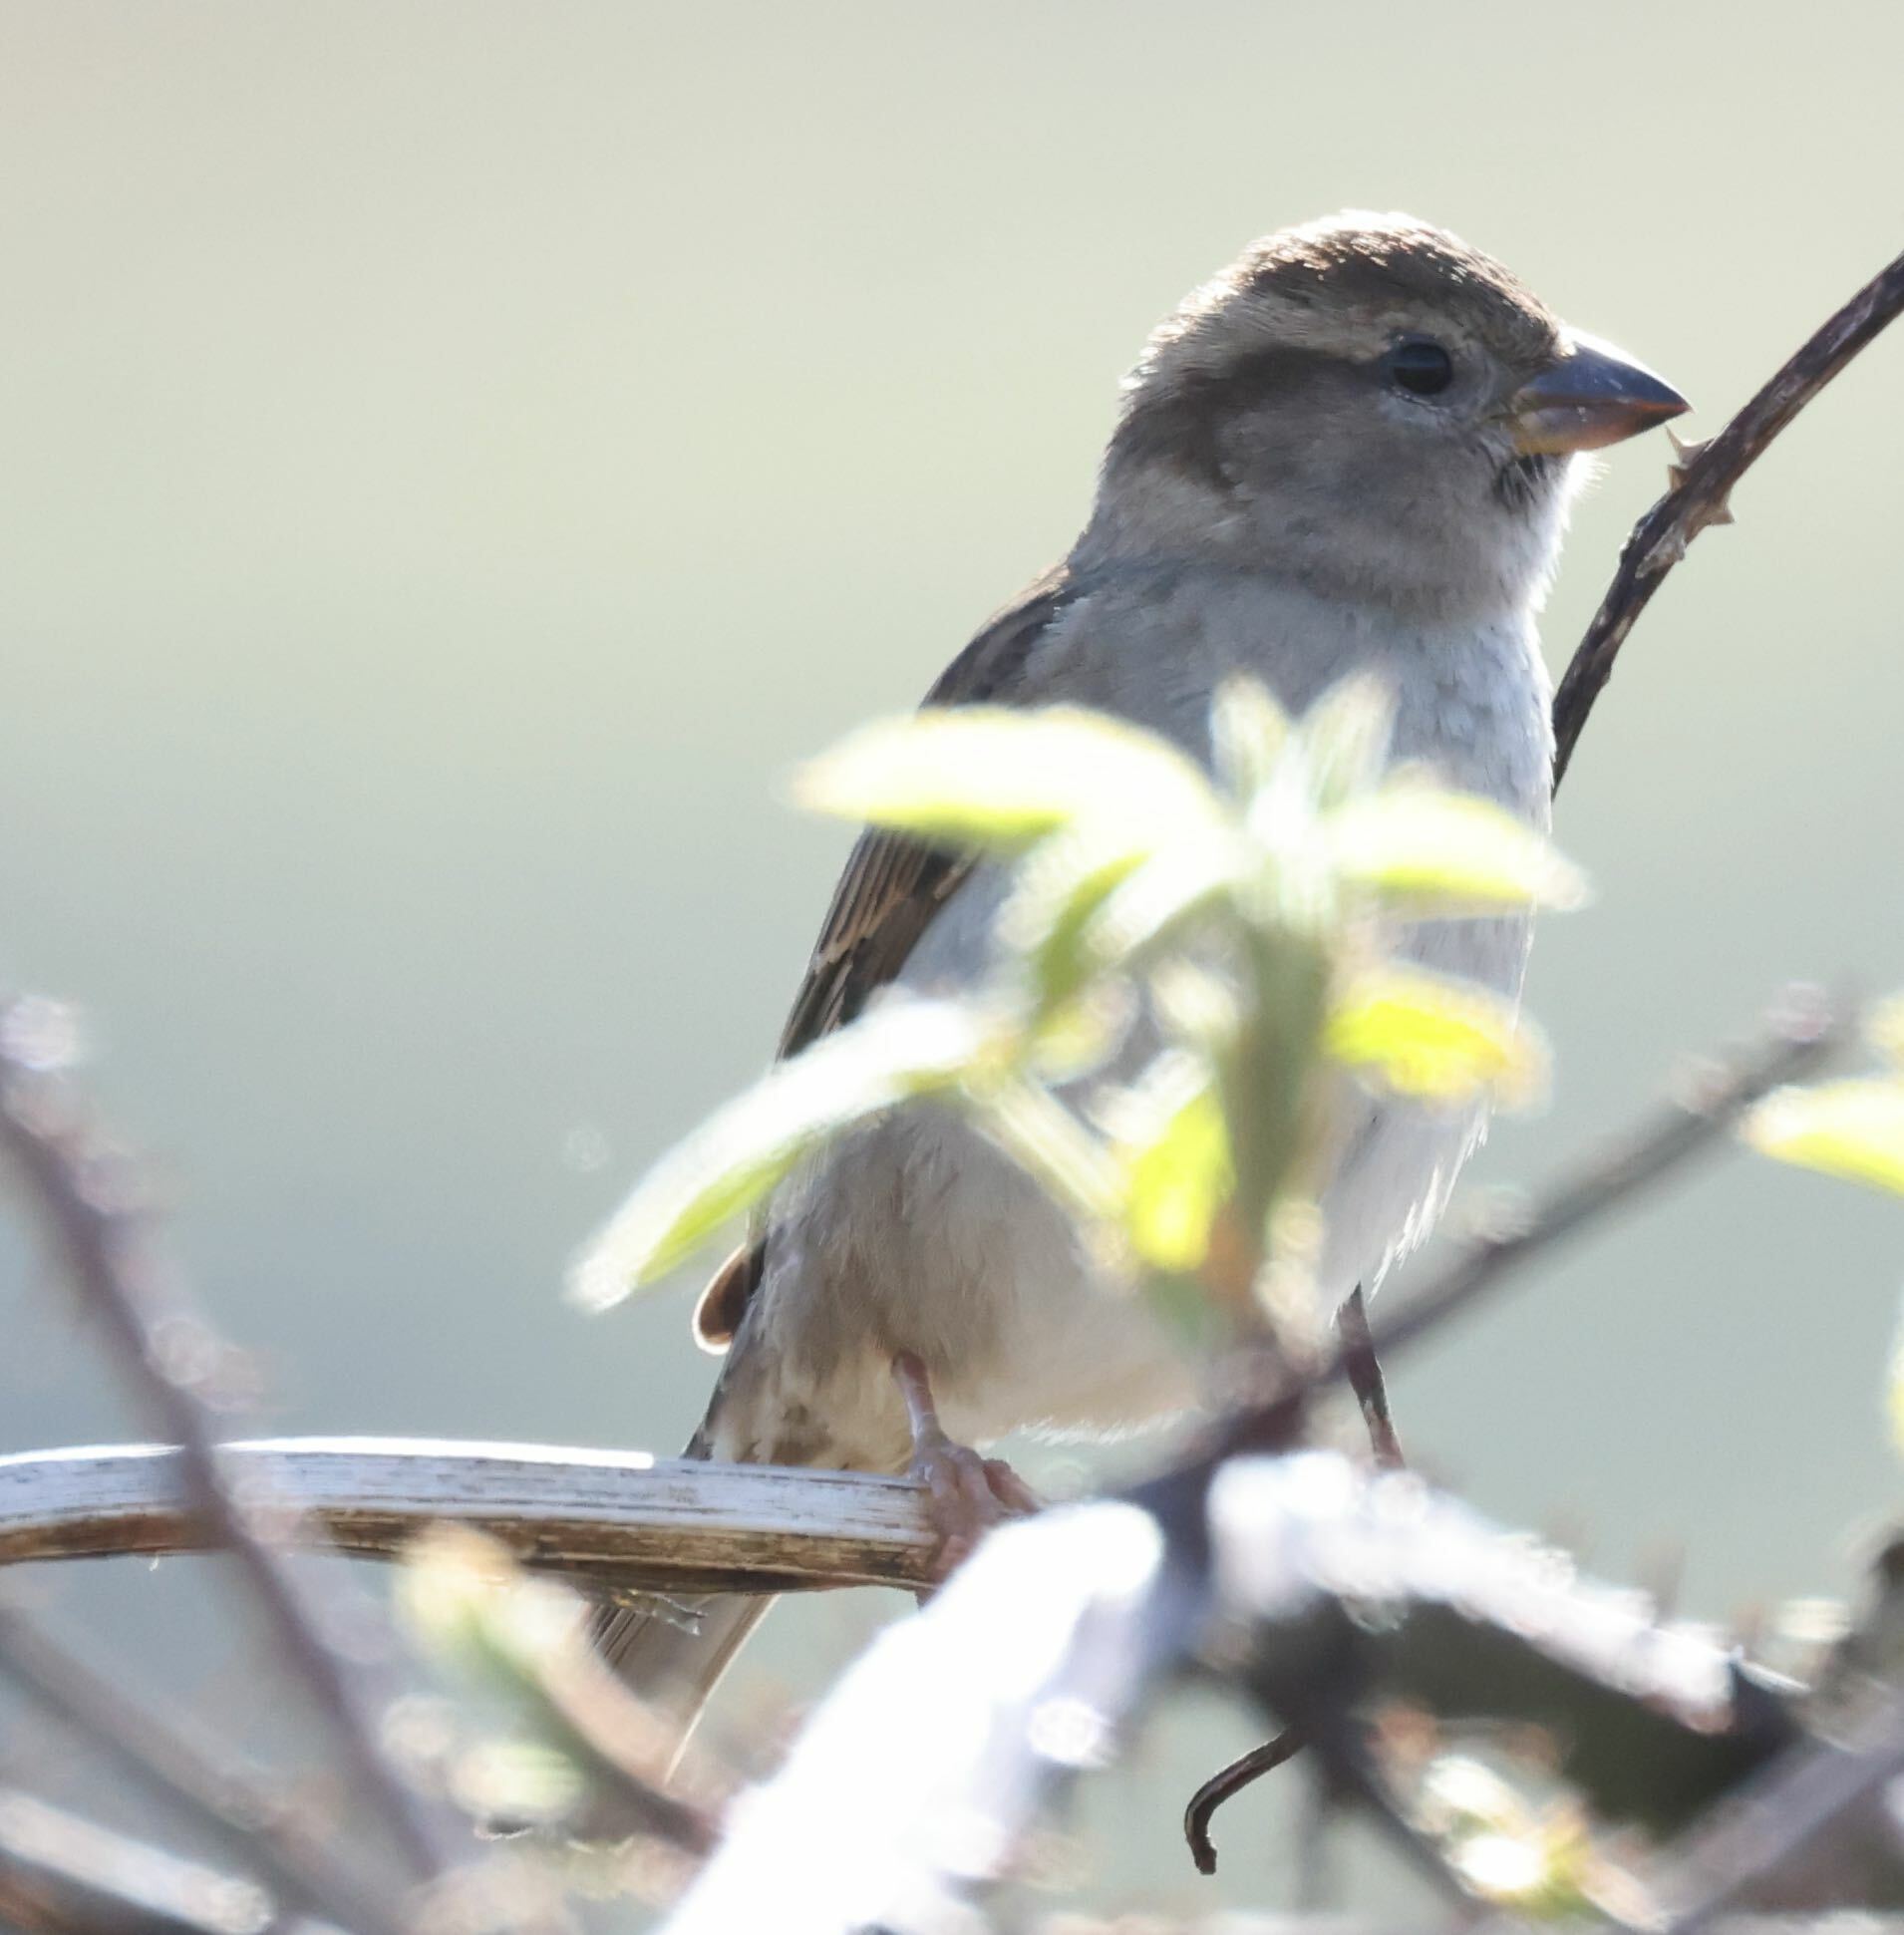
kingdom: Animalia
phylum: Chordata
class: Aves
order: Passeriformes
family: Passeridae
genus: Passer
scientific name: Passer domesticus
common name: House sparrow
